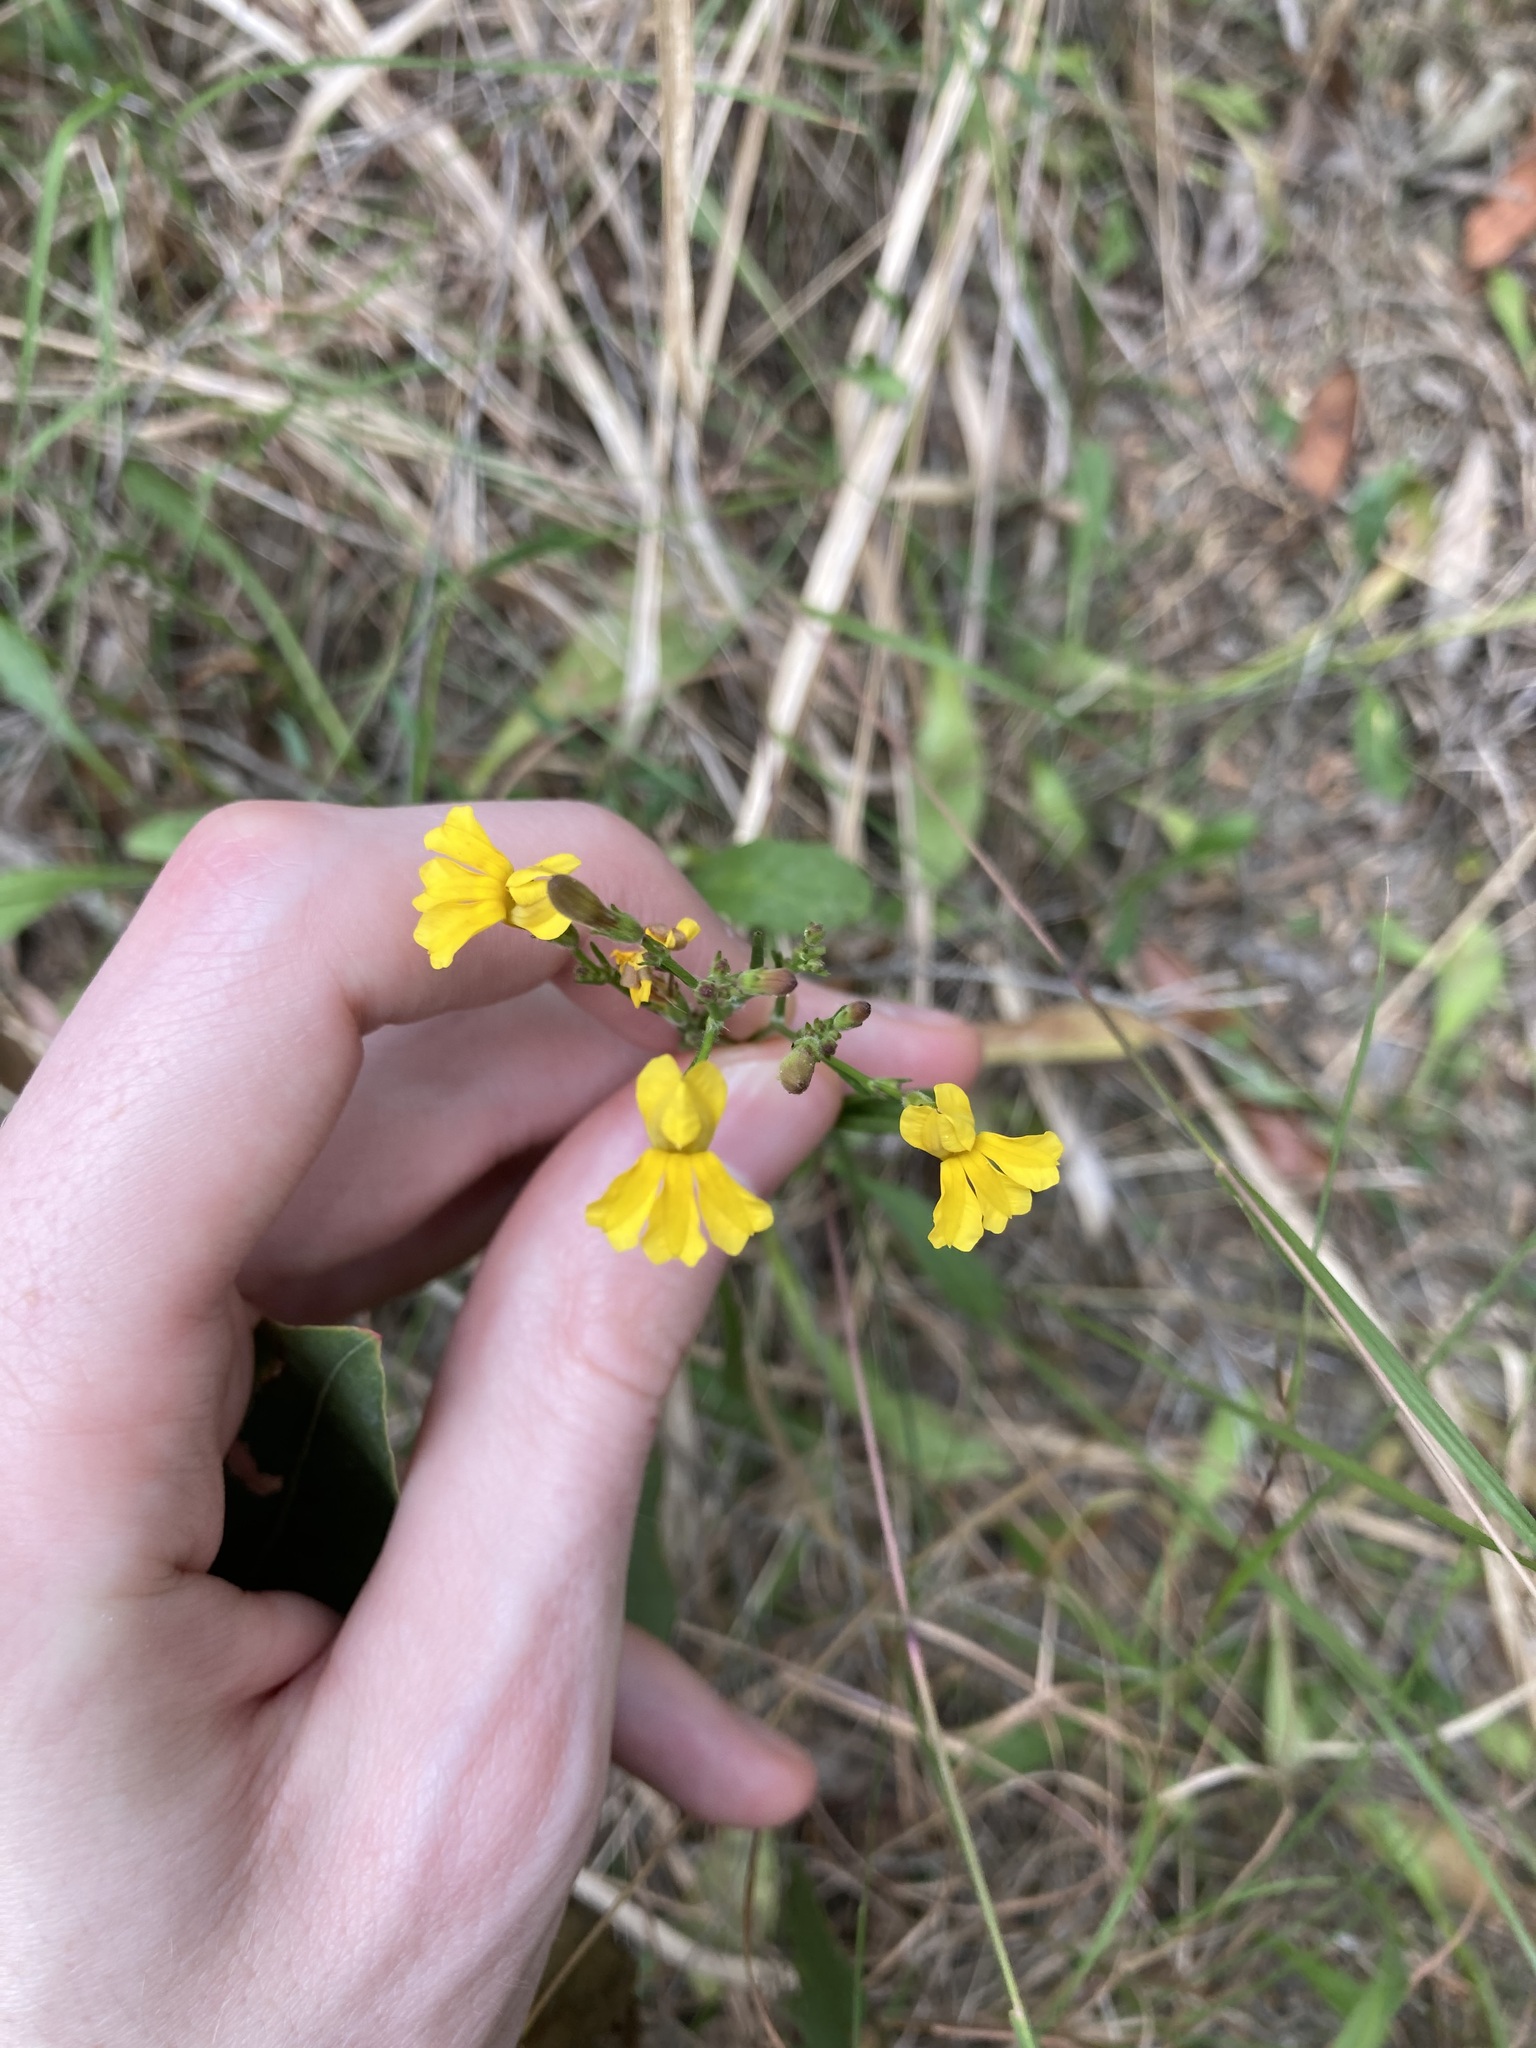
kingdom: Plantae
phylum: Tracheophyta
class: Magnoliopsida
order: Asterales
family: Goodeniaceae
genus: Goodenia
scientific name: Goodenia paniculata
